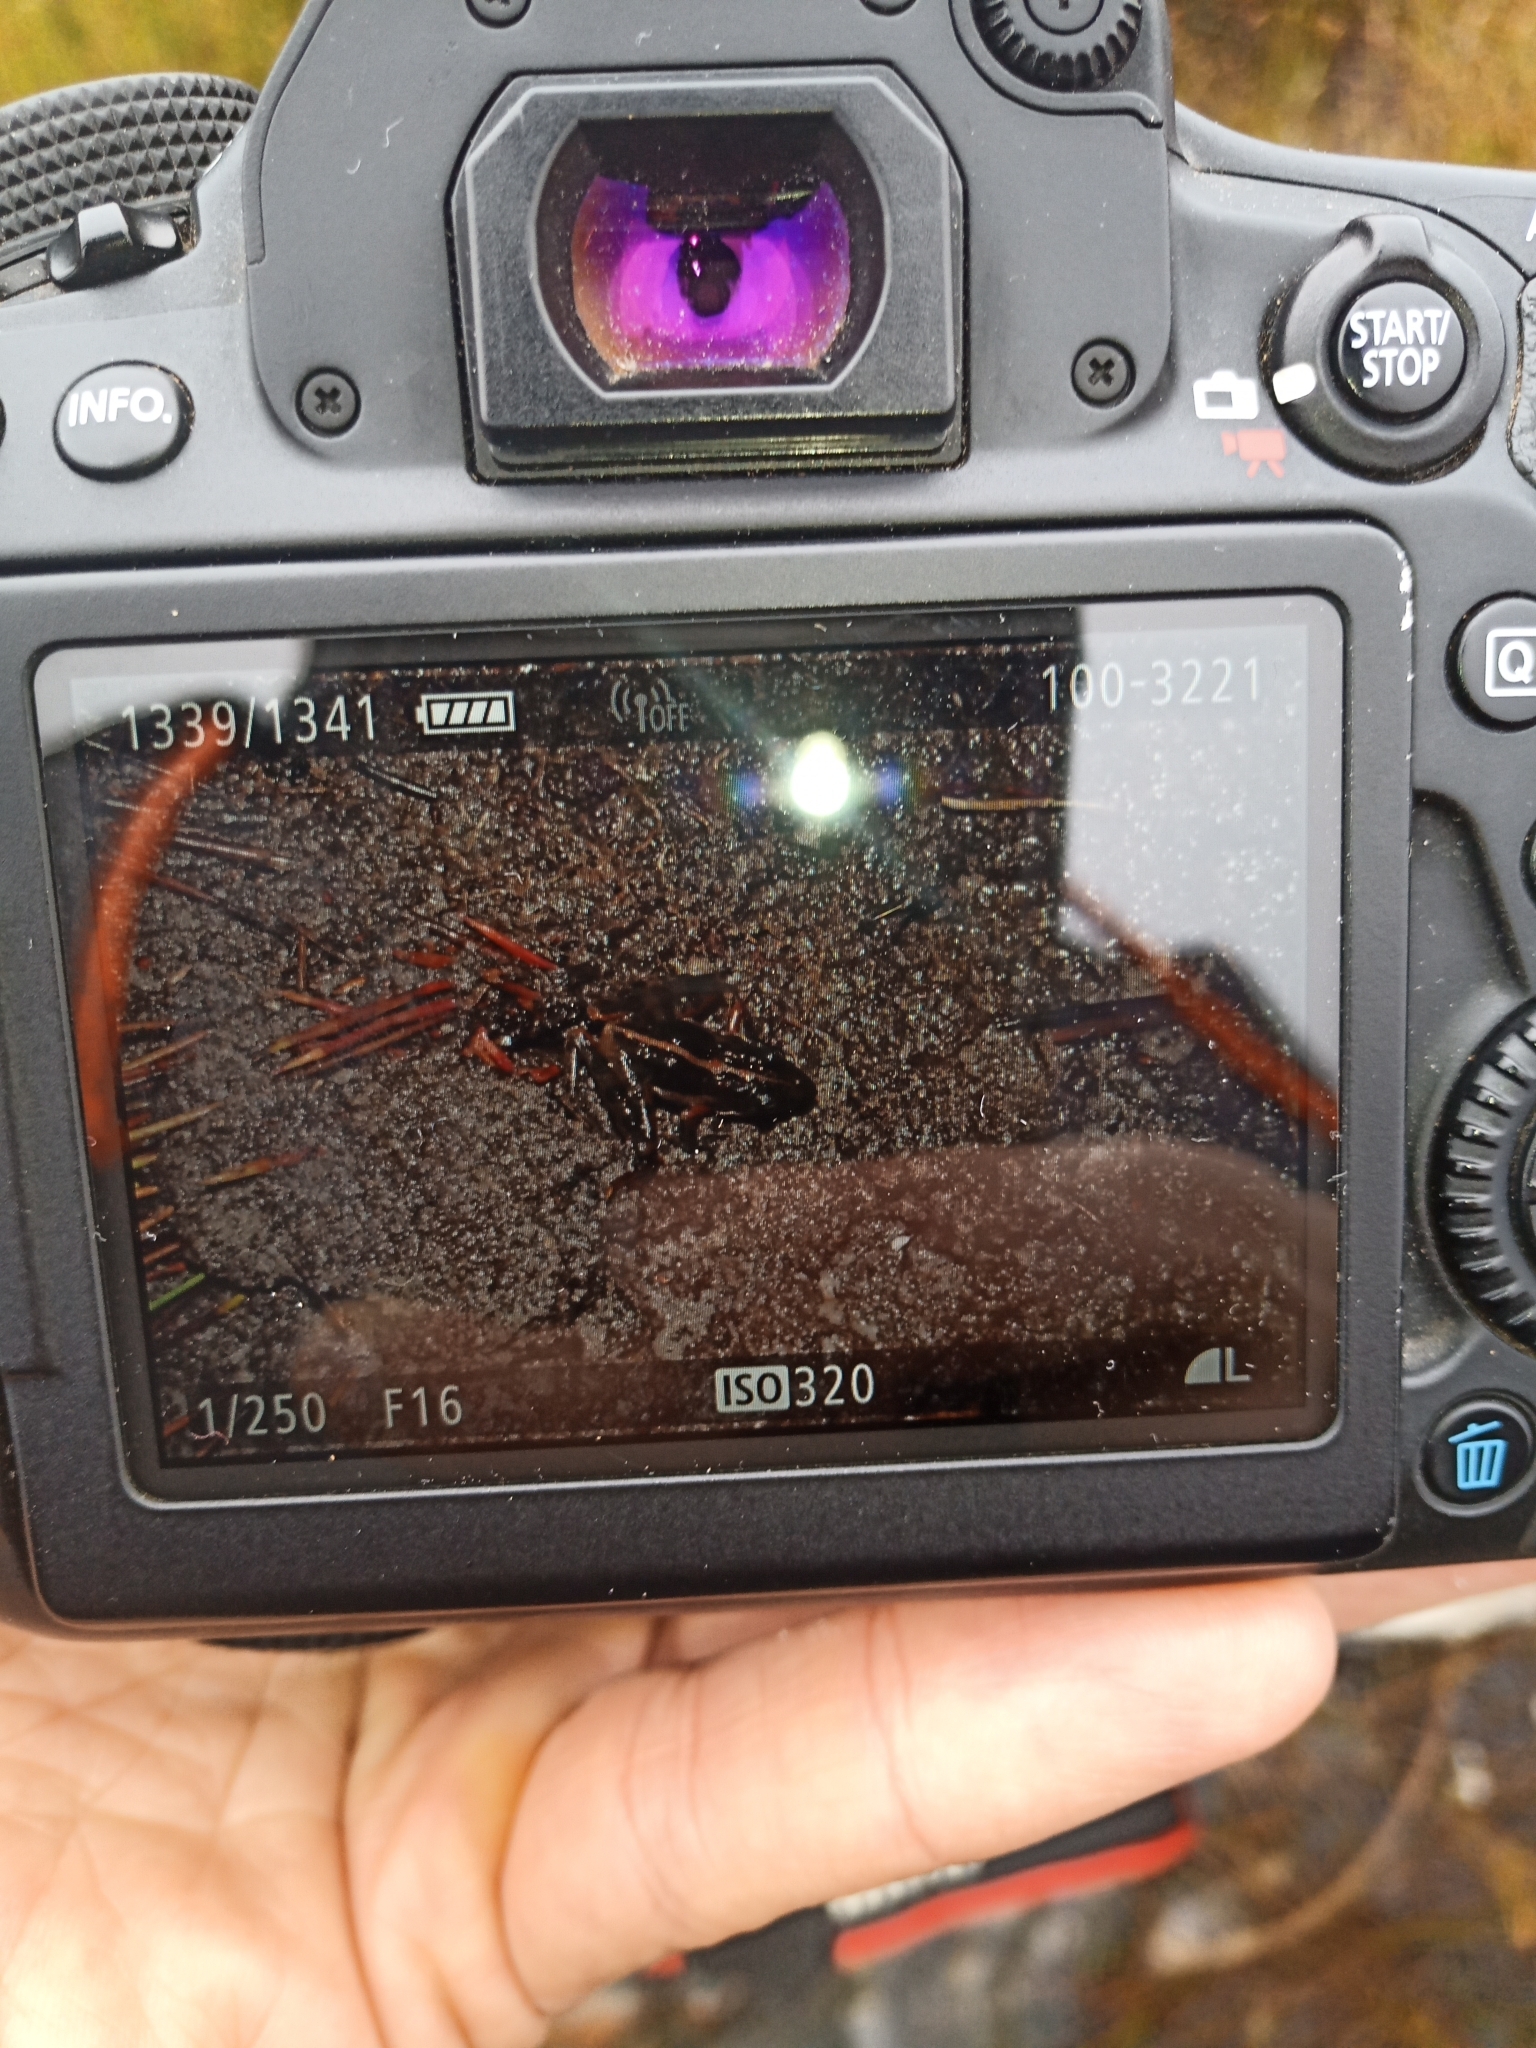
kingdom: Animalia
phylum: Chordata
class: Amphibia
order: Anura
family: Pyxicephalidae
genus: Strongylopus
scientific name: Strongylopus bonaespei
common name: Banded stream frog
